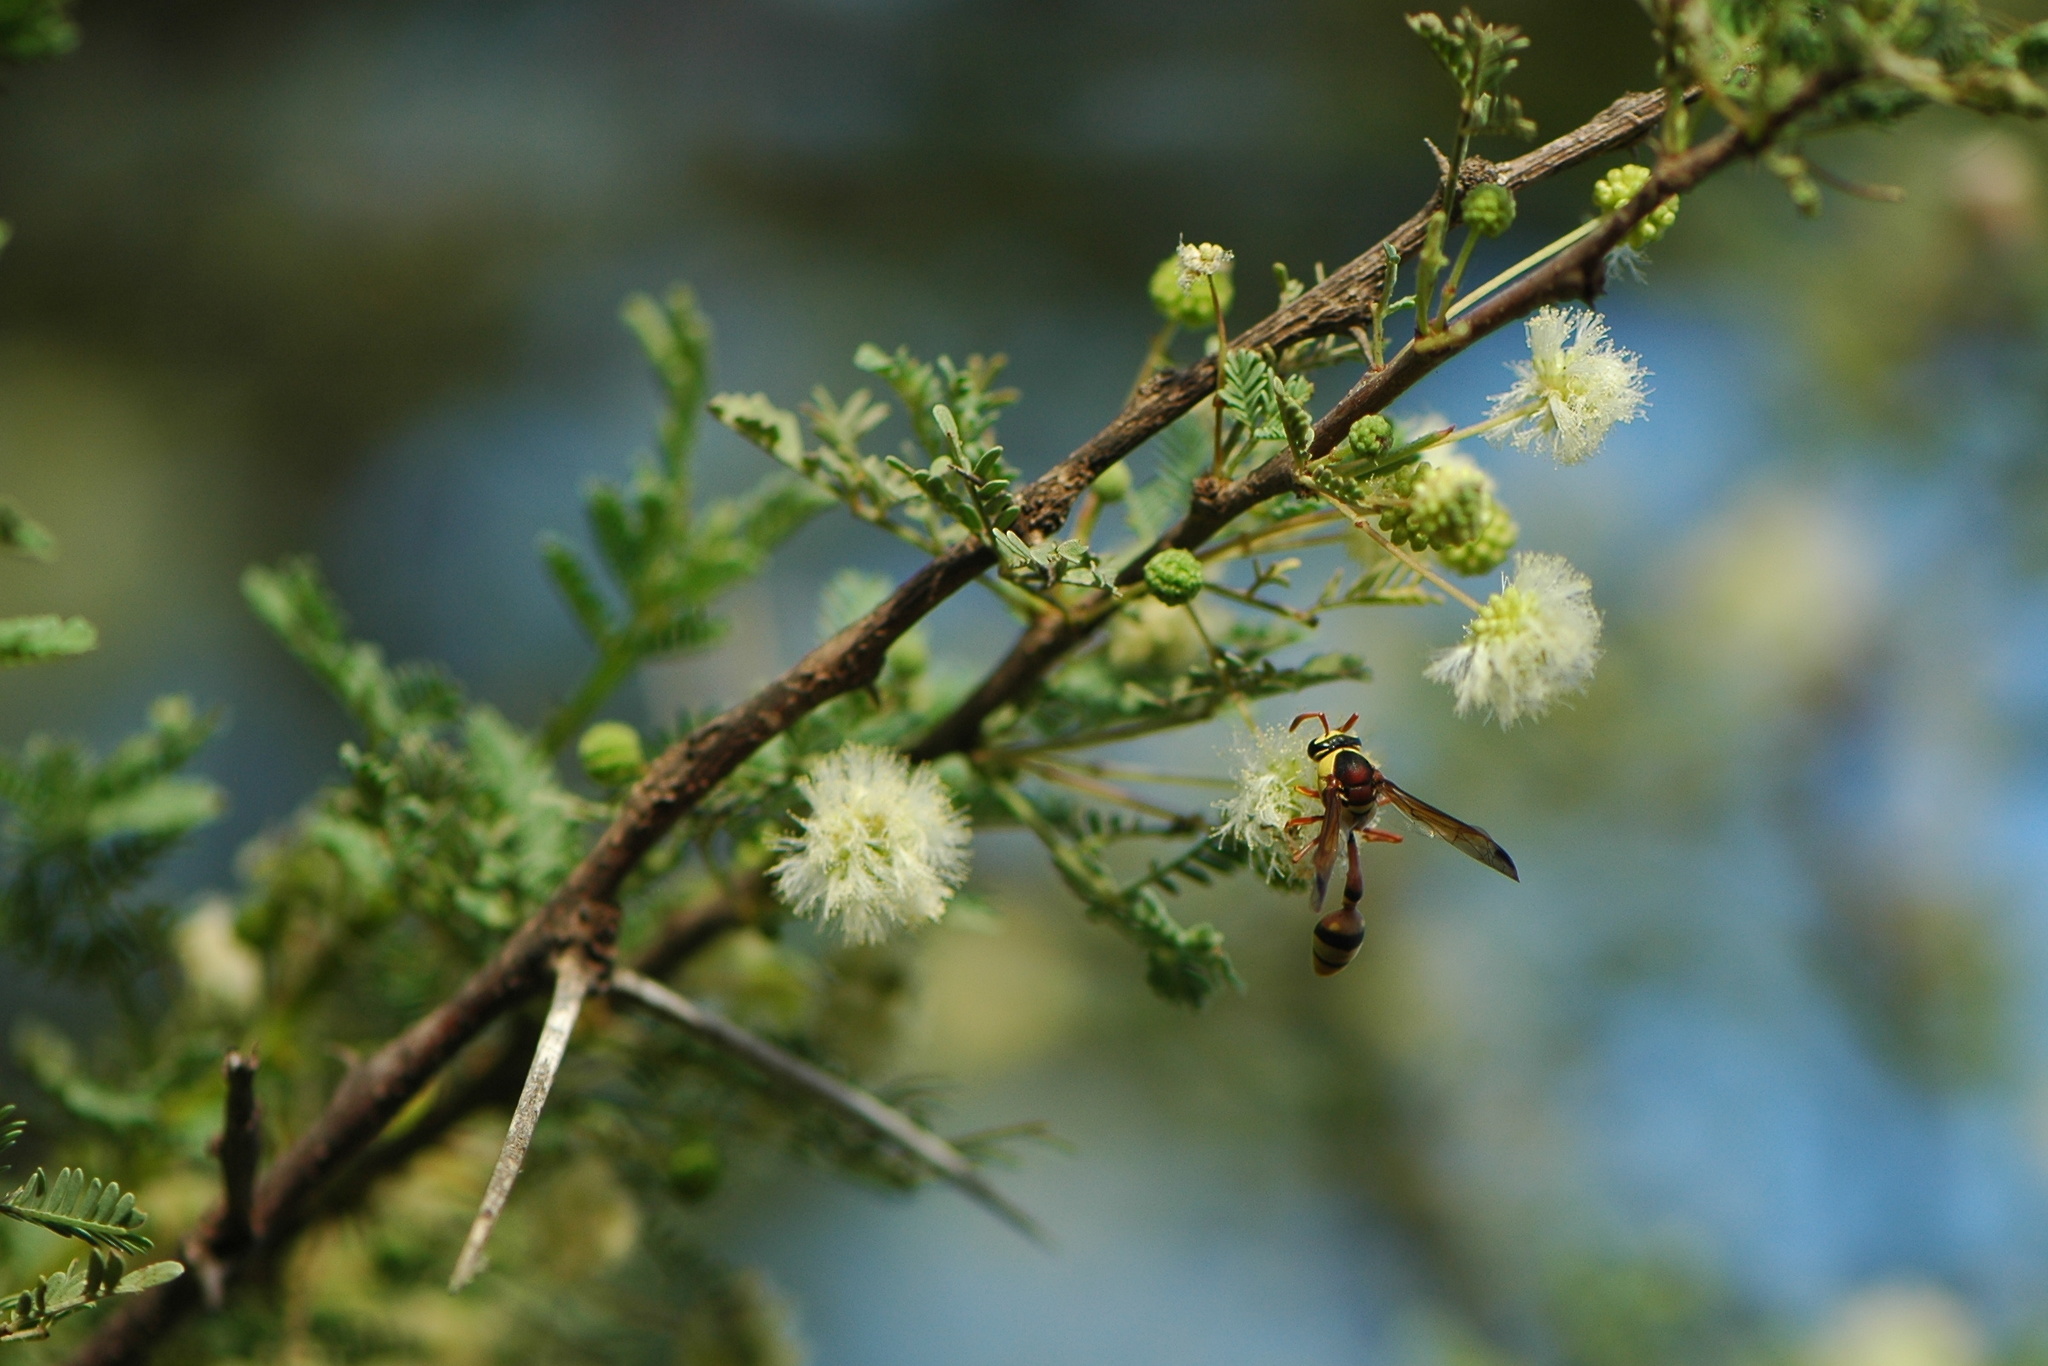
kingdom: Animalia
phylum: Arthropoda
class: Insecta
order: Hymenoptera
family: Eumenidae
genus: Delta
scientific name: Delta esuriens
